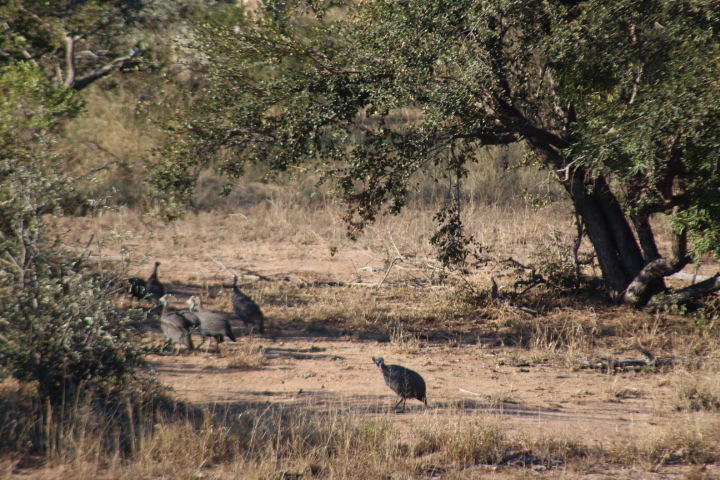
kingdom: Animalia
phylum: Chordata
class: Aves
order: Galliformes
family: Numididae
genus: Numida
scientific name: Numida meleagris
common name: Helmeted guineafowl
